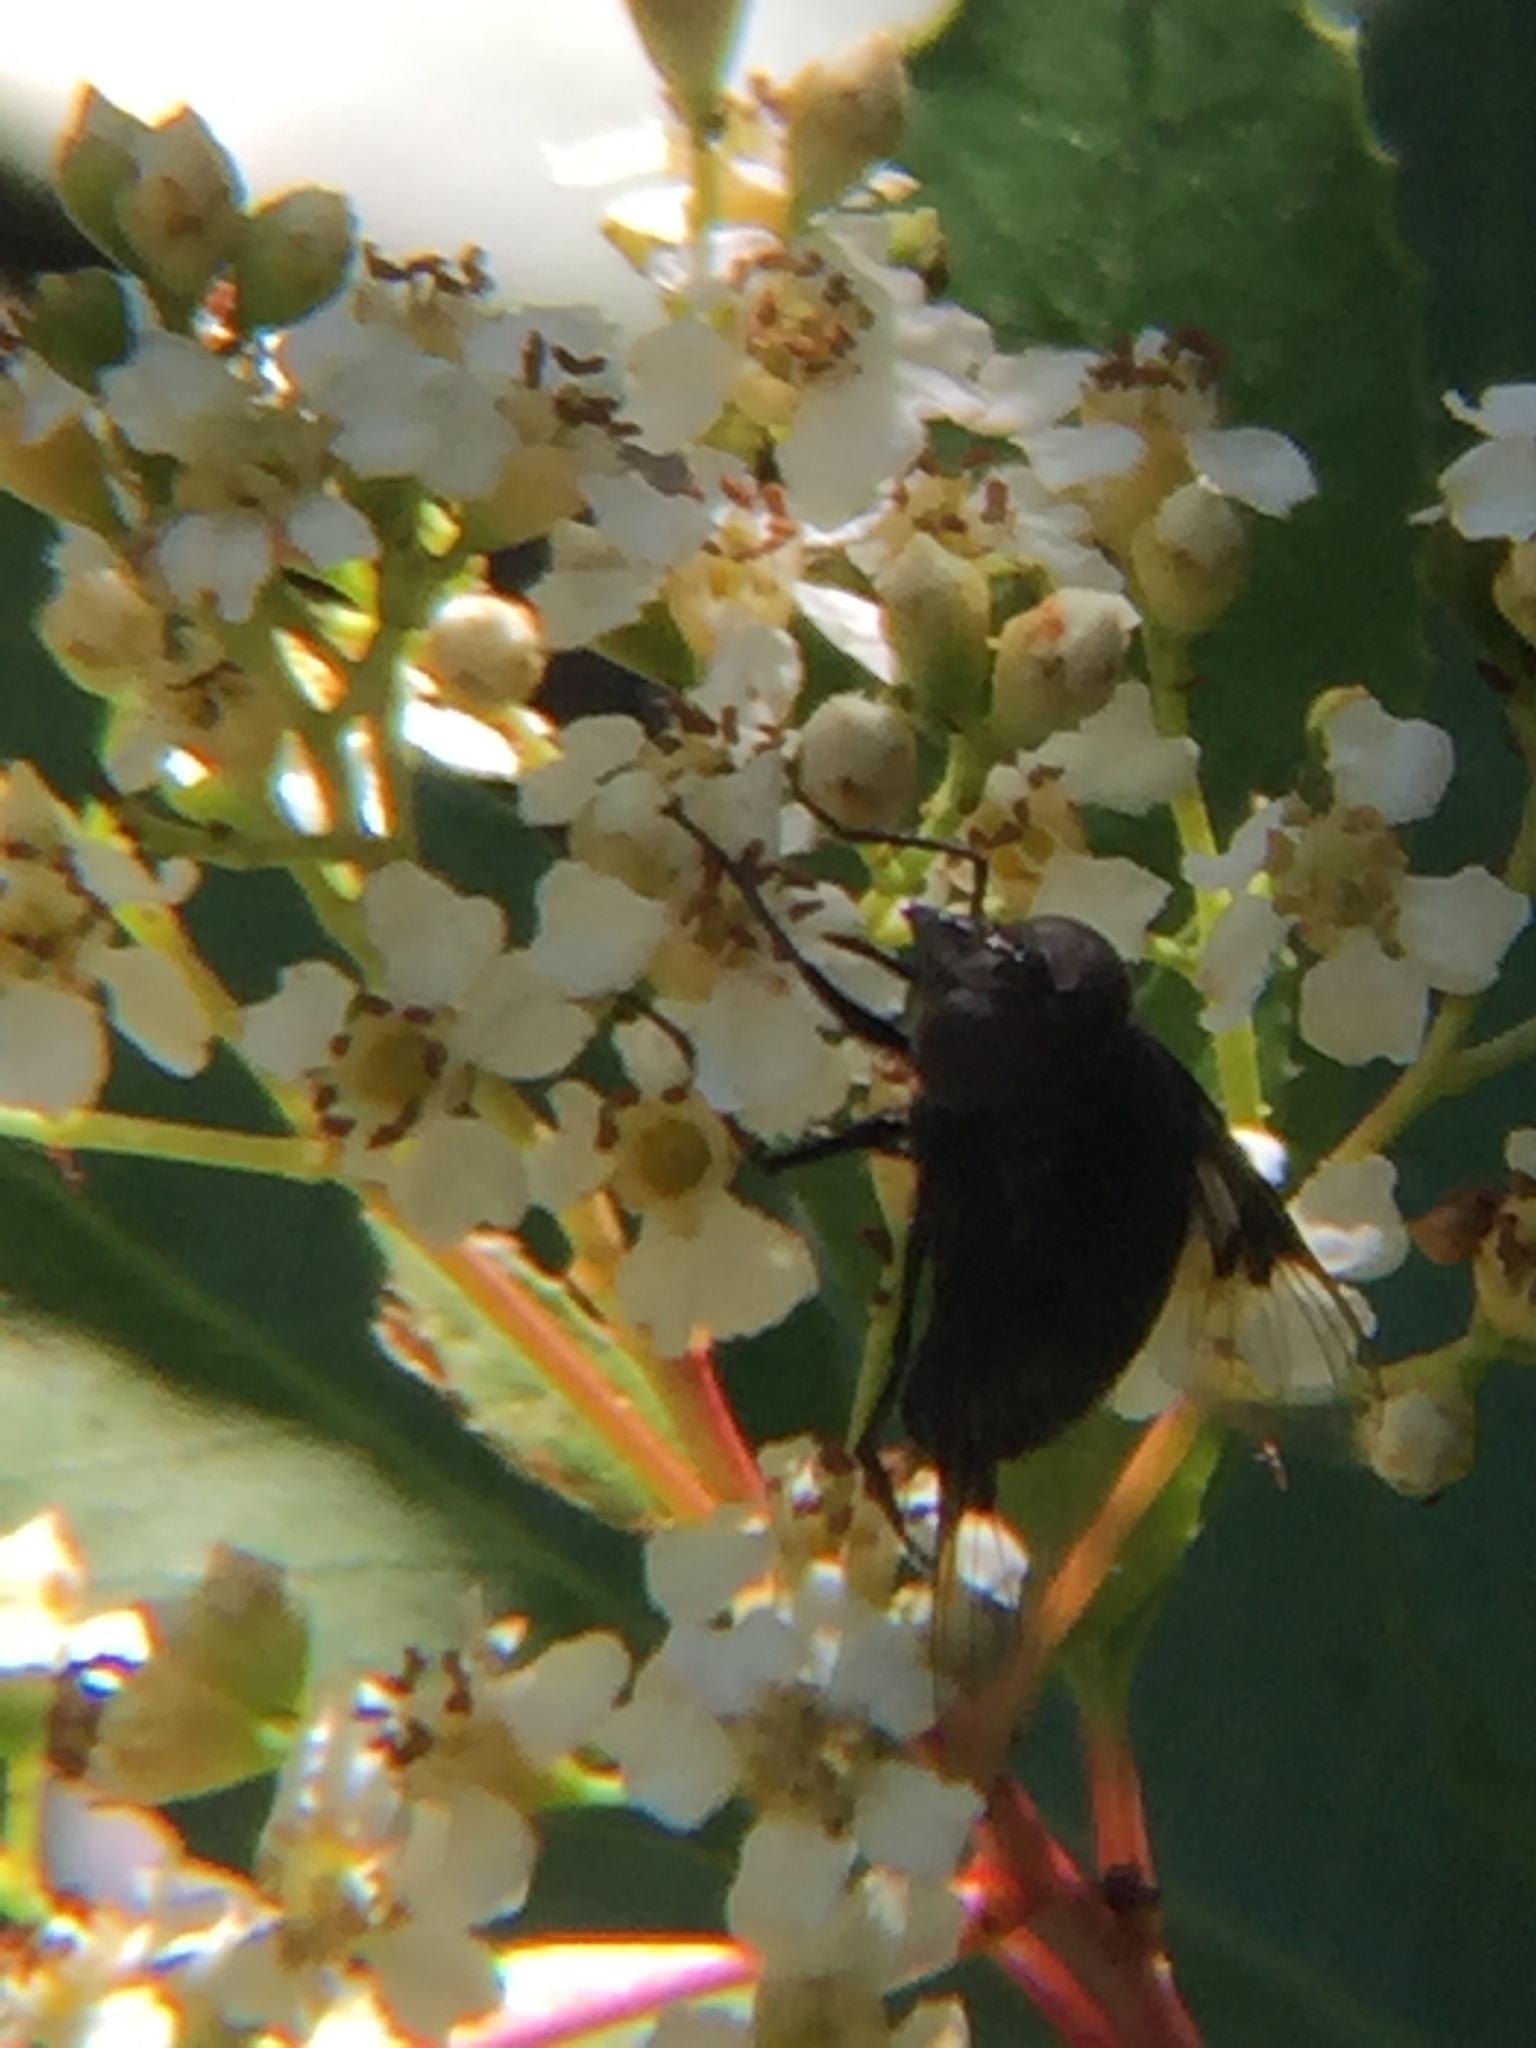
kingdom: Animalia
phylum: Arthropoda
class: Insecta
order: Diptera
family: Syrphidae
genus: Copestylum
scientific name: Copestylum
